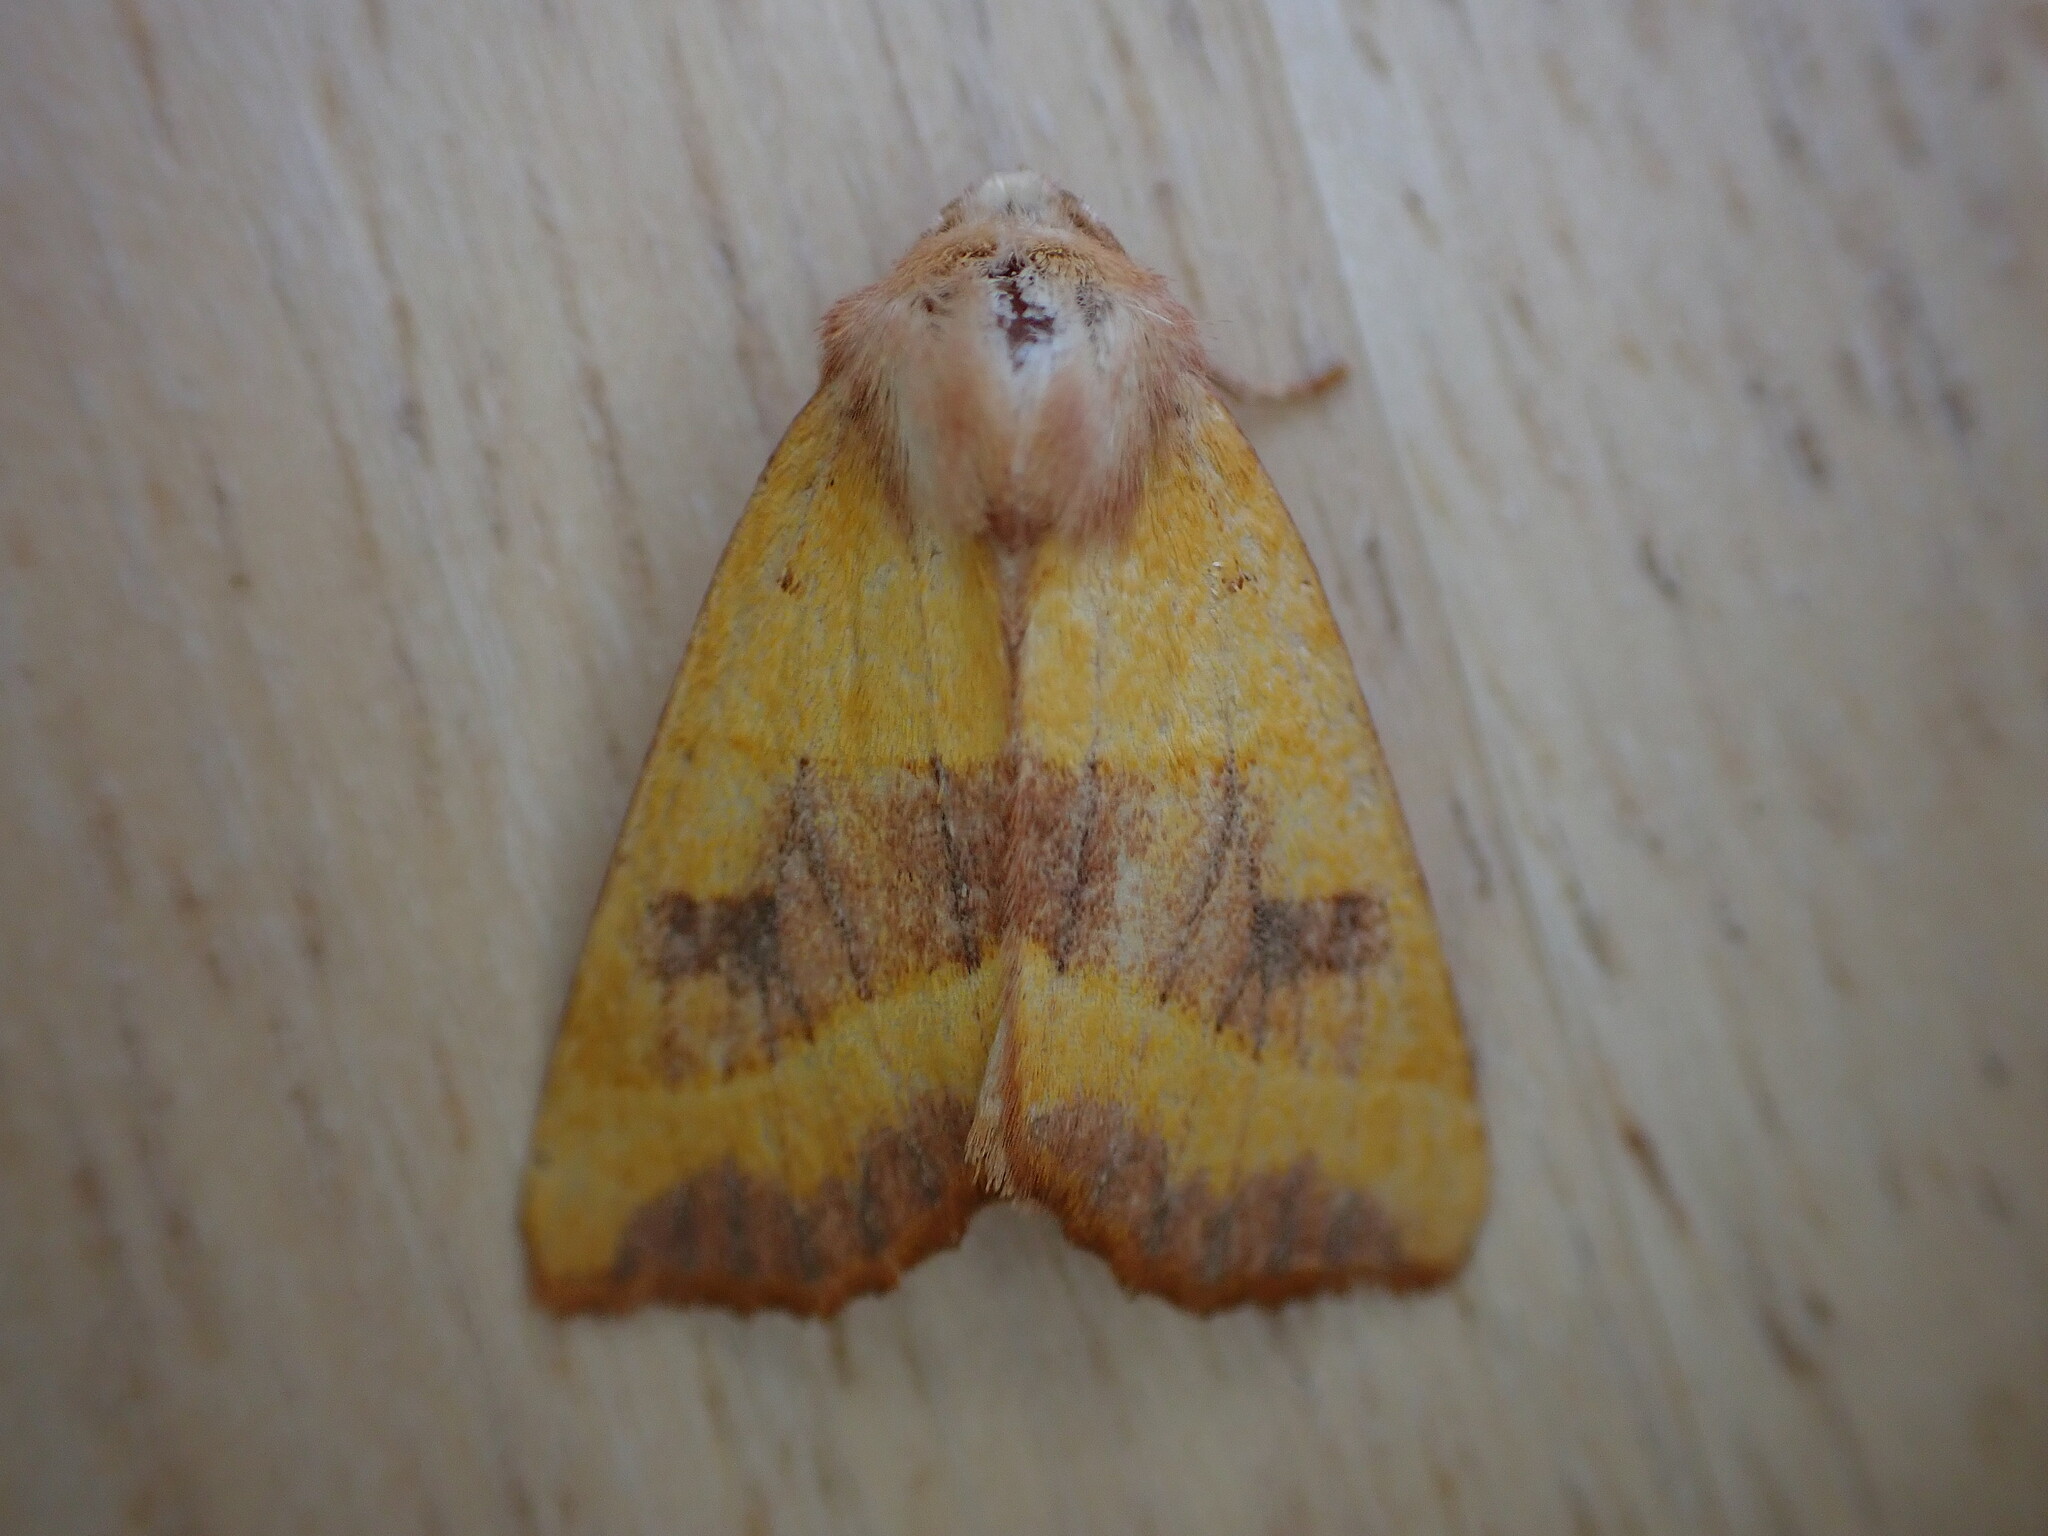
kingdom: Animalia
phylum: Arthropoda
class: Insecta
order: Lepidoptera
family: Noctuidae
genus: Atethmia
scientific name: Atethmia centrago
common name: Centre-barred sallow
